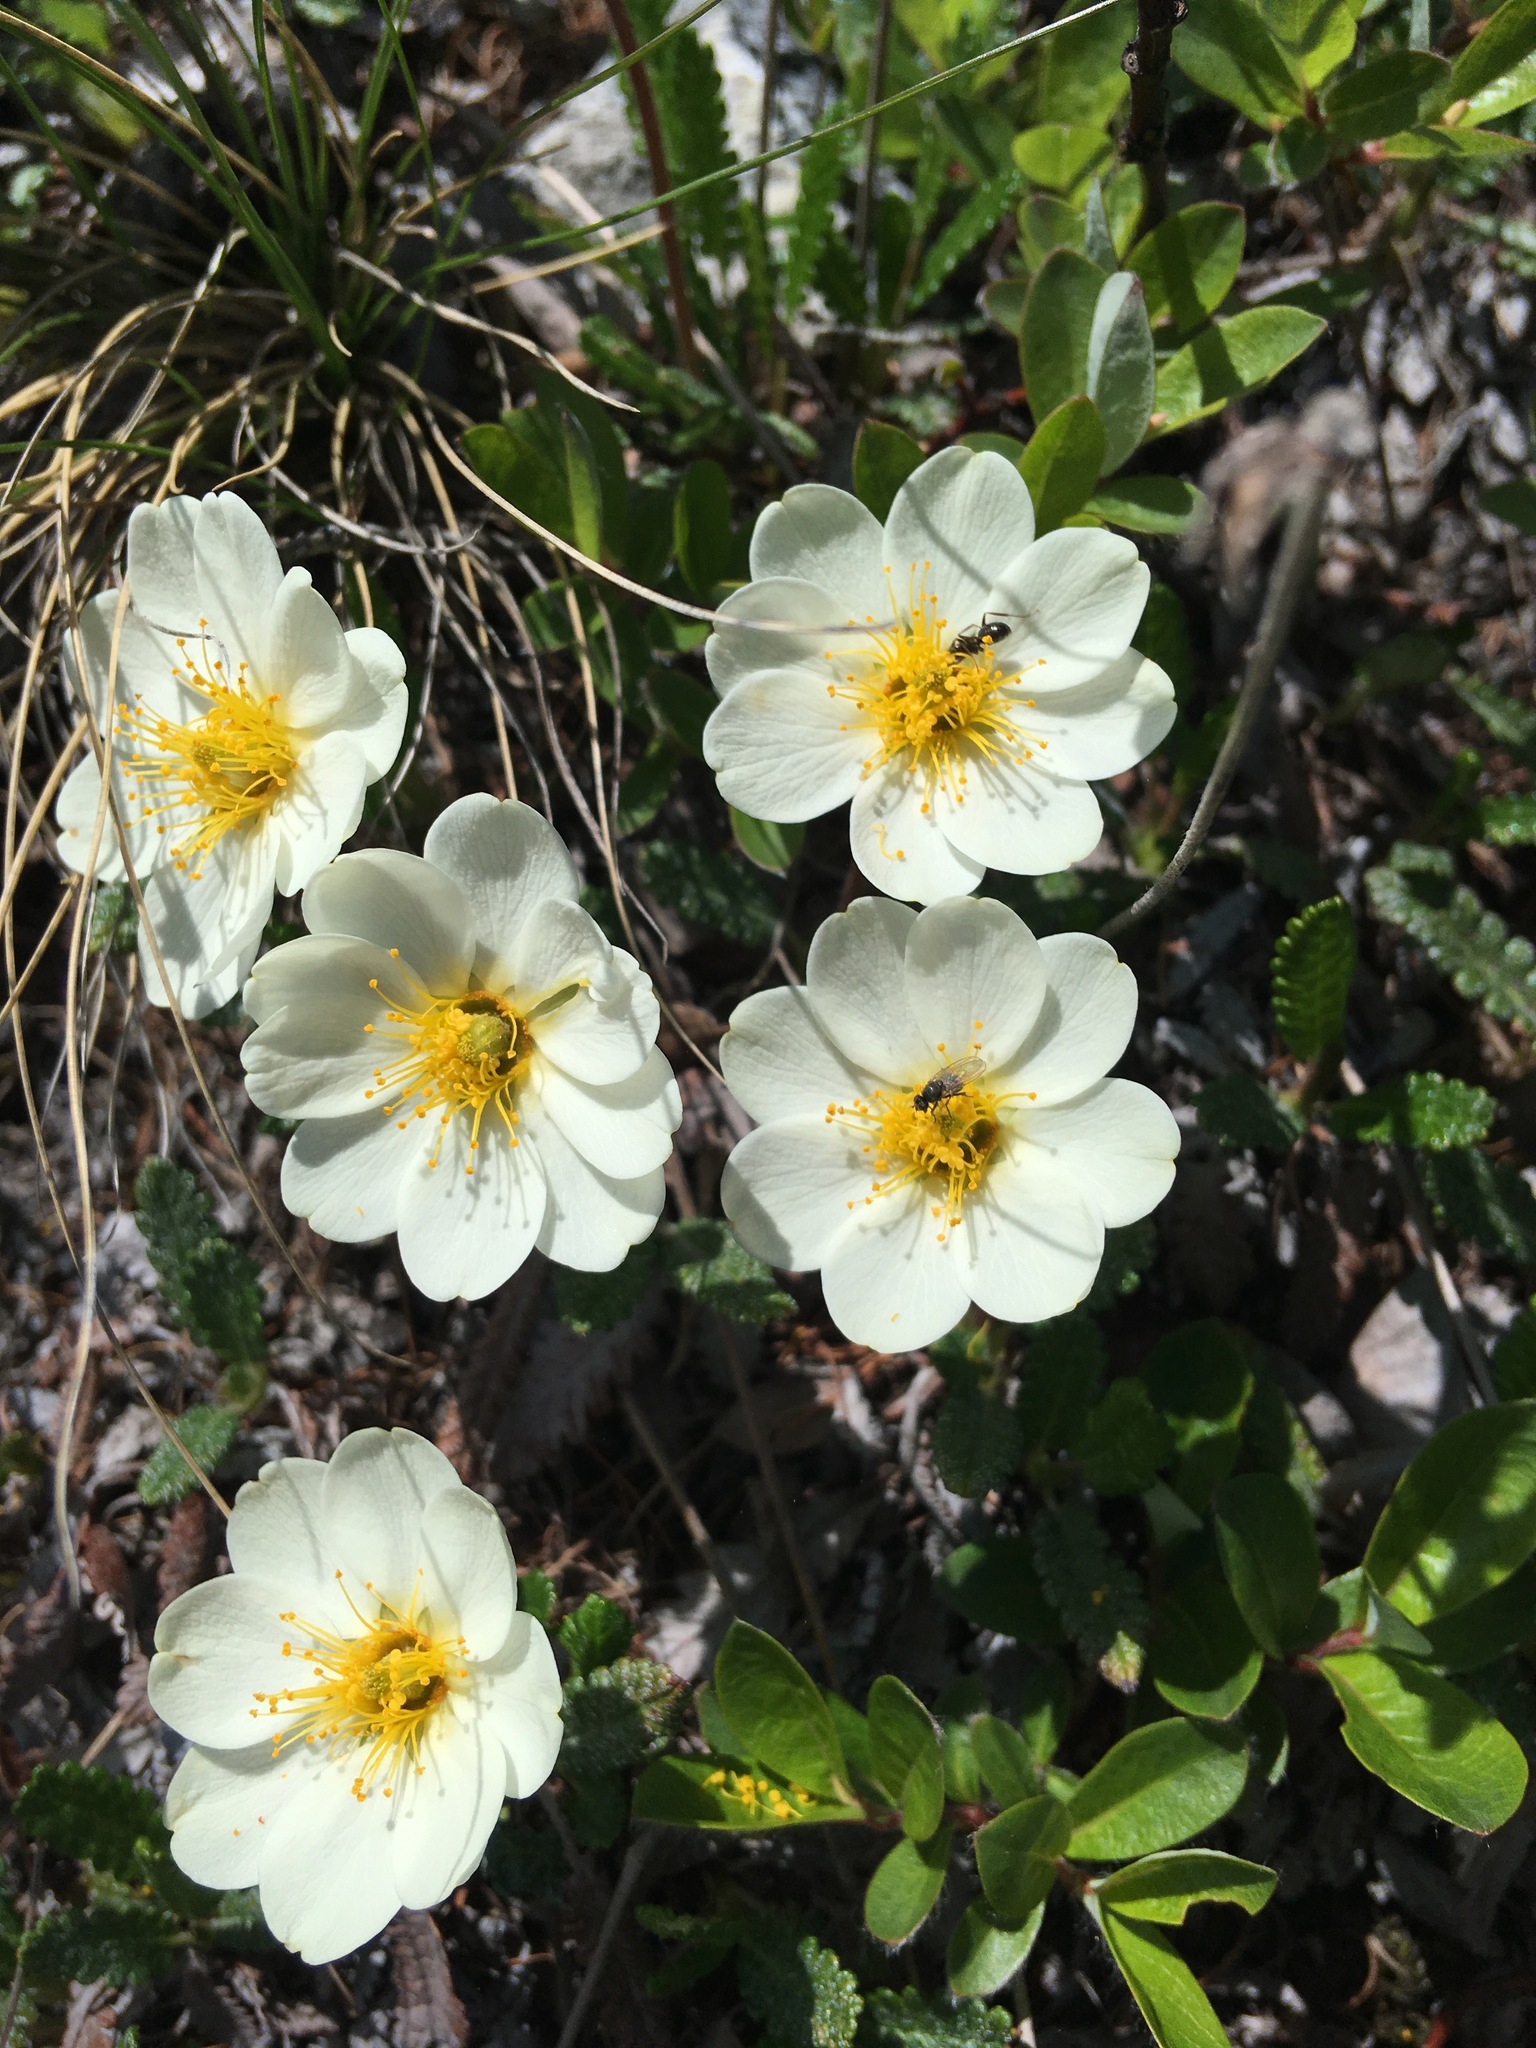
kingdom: Plantae
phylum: Tracheophyta
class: Magnoliopsida
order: Rosales
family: Rosaceae
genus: Dryas
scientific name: Dryas octopetala
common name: Eight-petal mountain-avens
